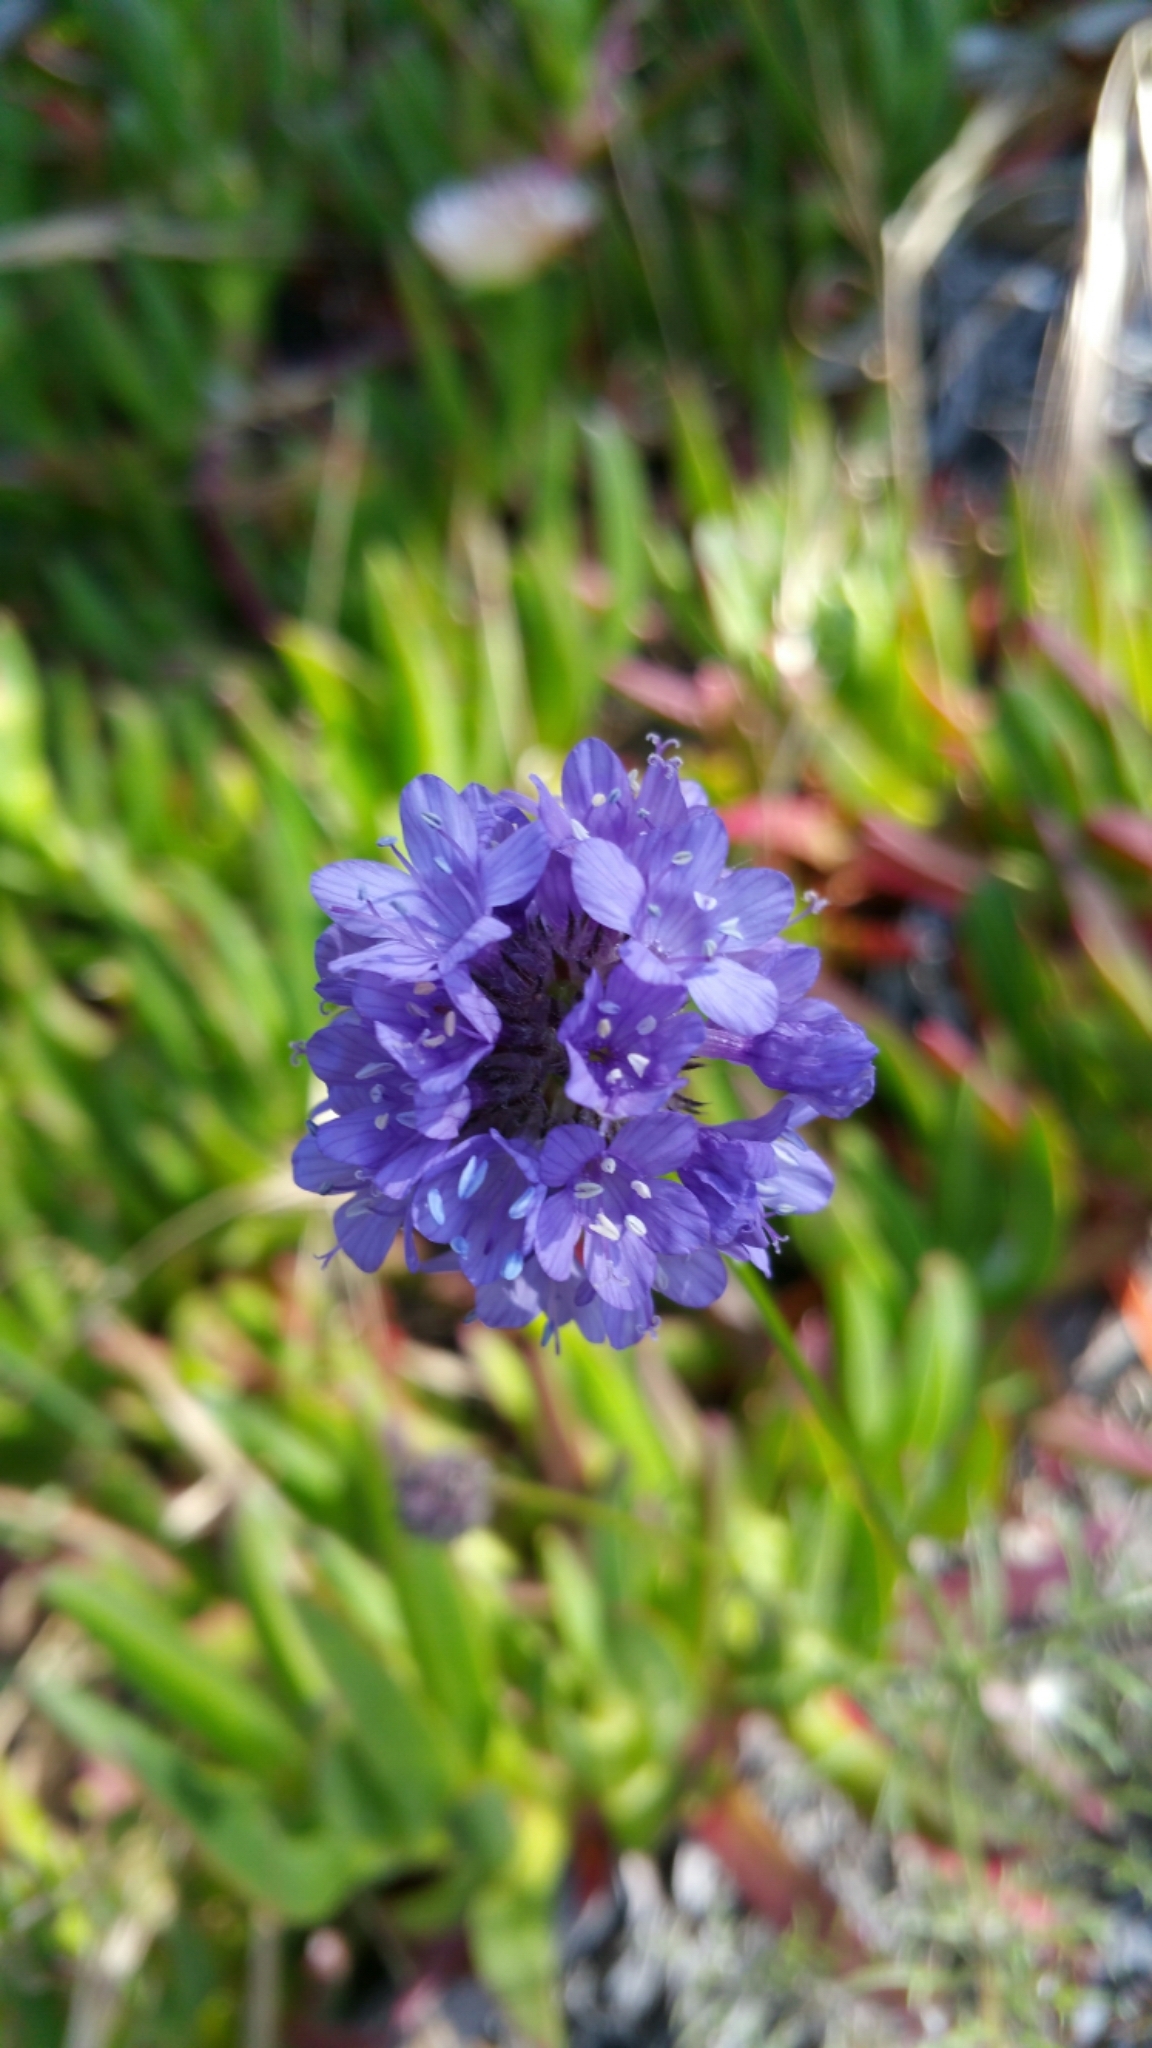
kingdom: Plantae
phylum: Tracheophyta
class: Magnoliopsida
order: Ericales
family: Polemoniaceae
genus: Gilia
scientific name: Gilia capitata
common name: Bluehead gilia
